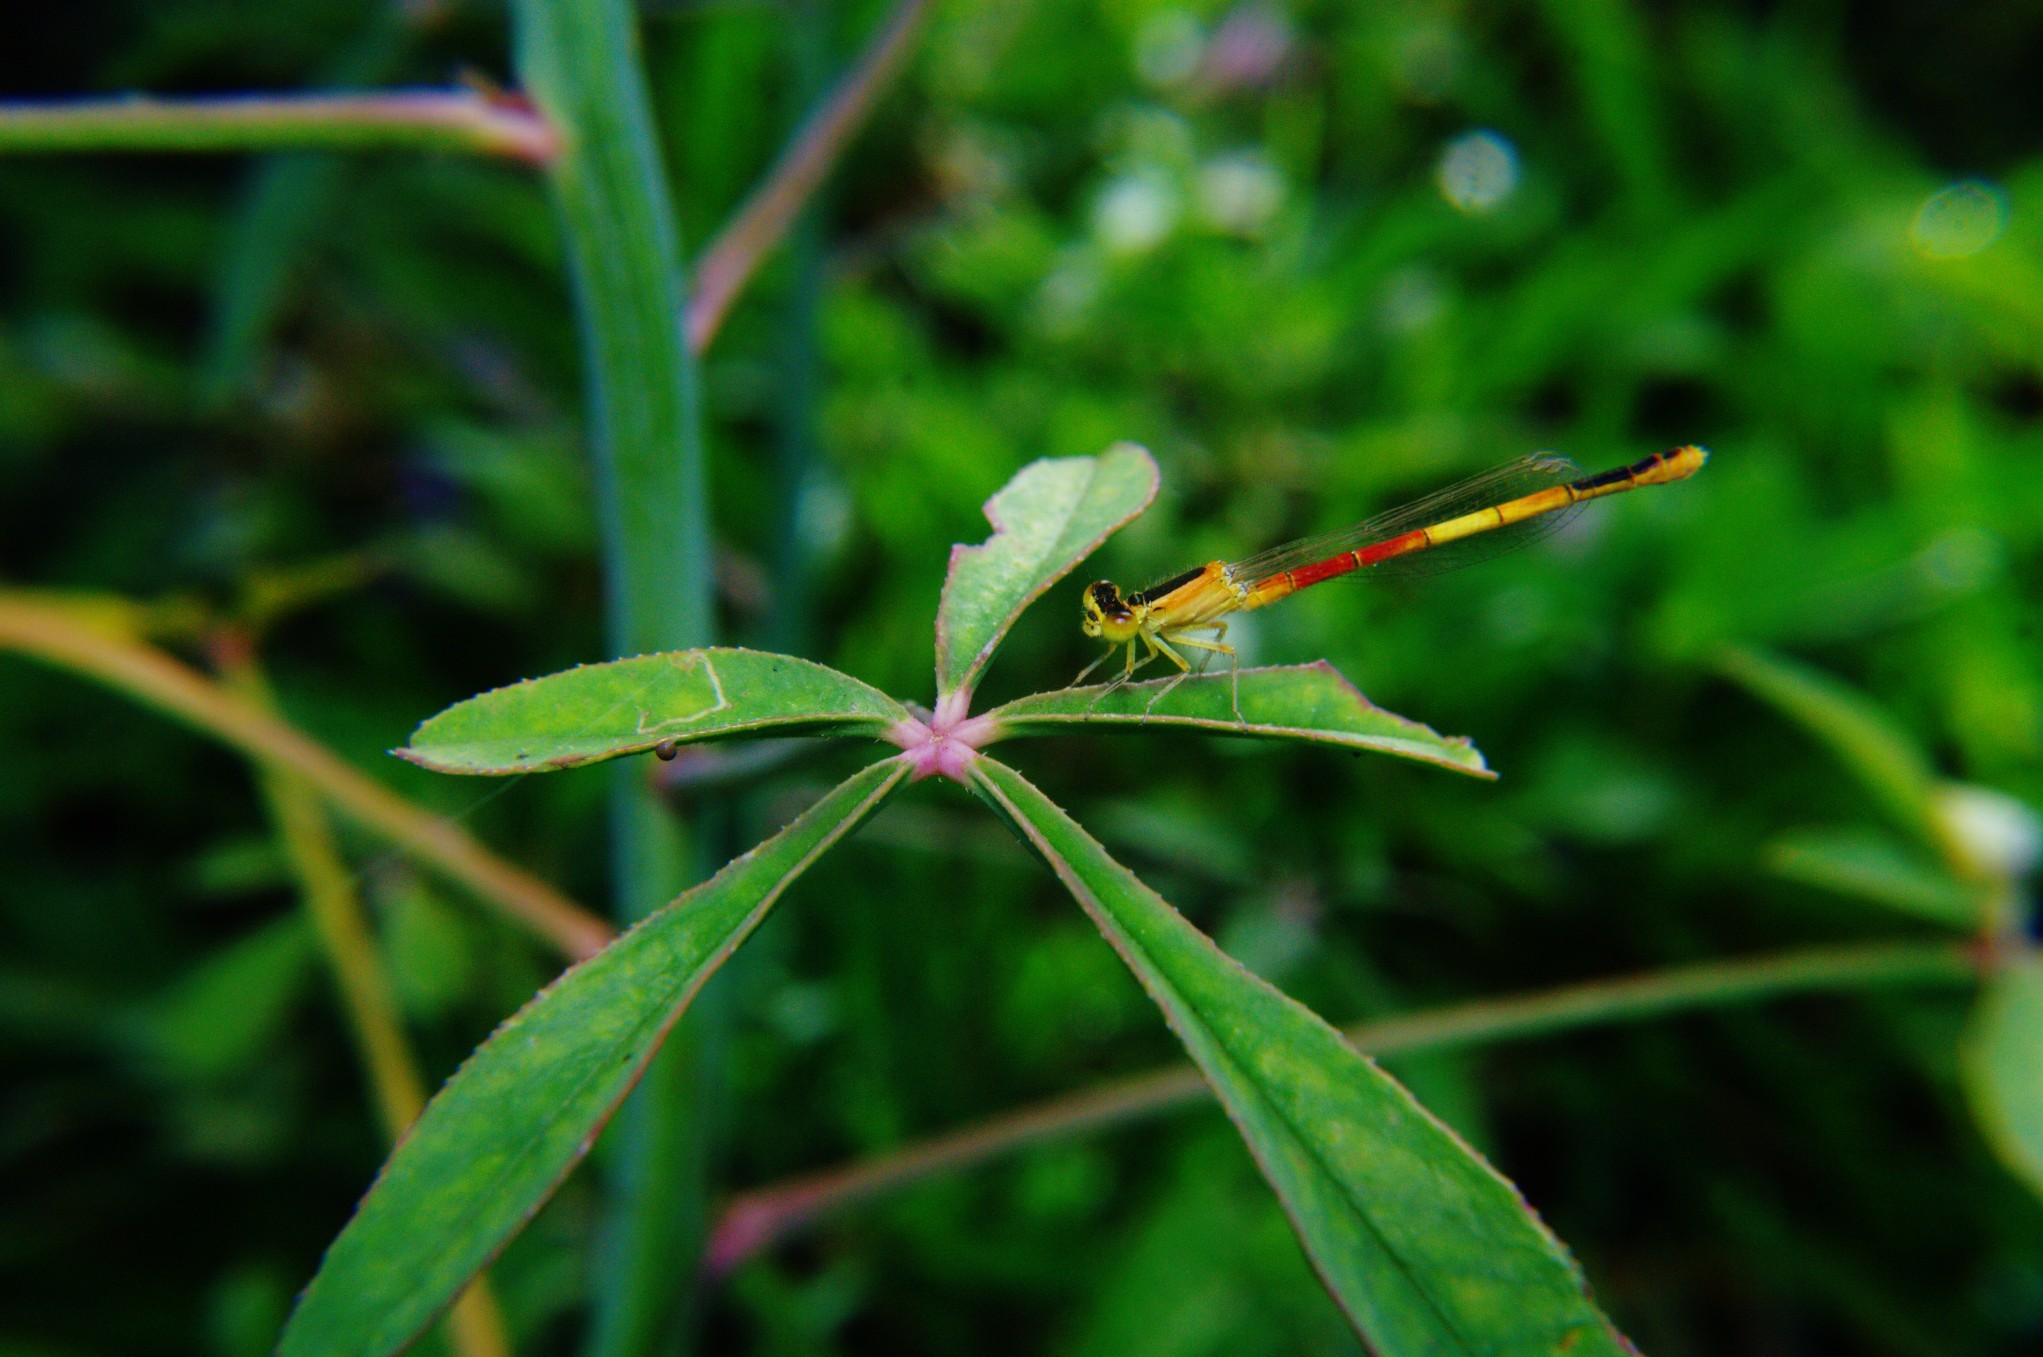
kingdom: Animalia
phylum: Arthropoda
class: Insecta
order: Odonata
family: Coenagrionidae
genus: Ischnura
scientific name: Ischnura nursei
